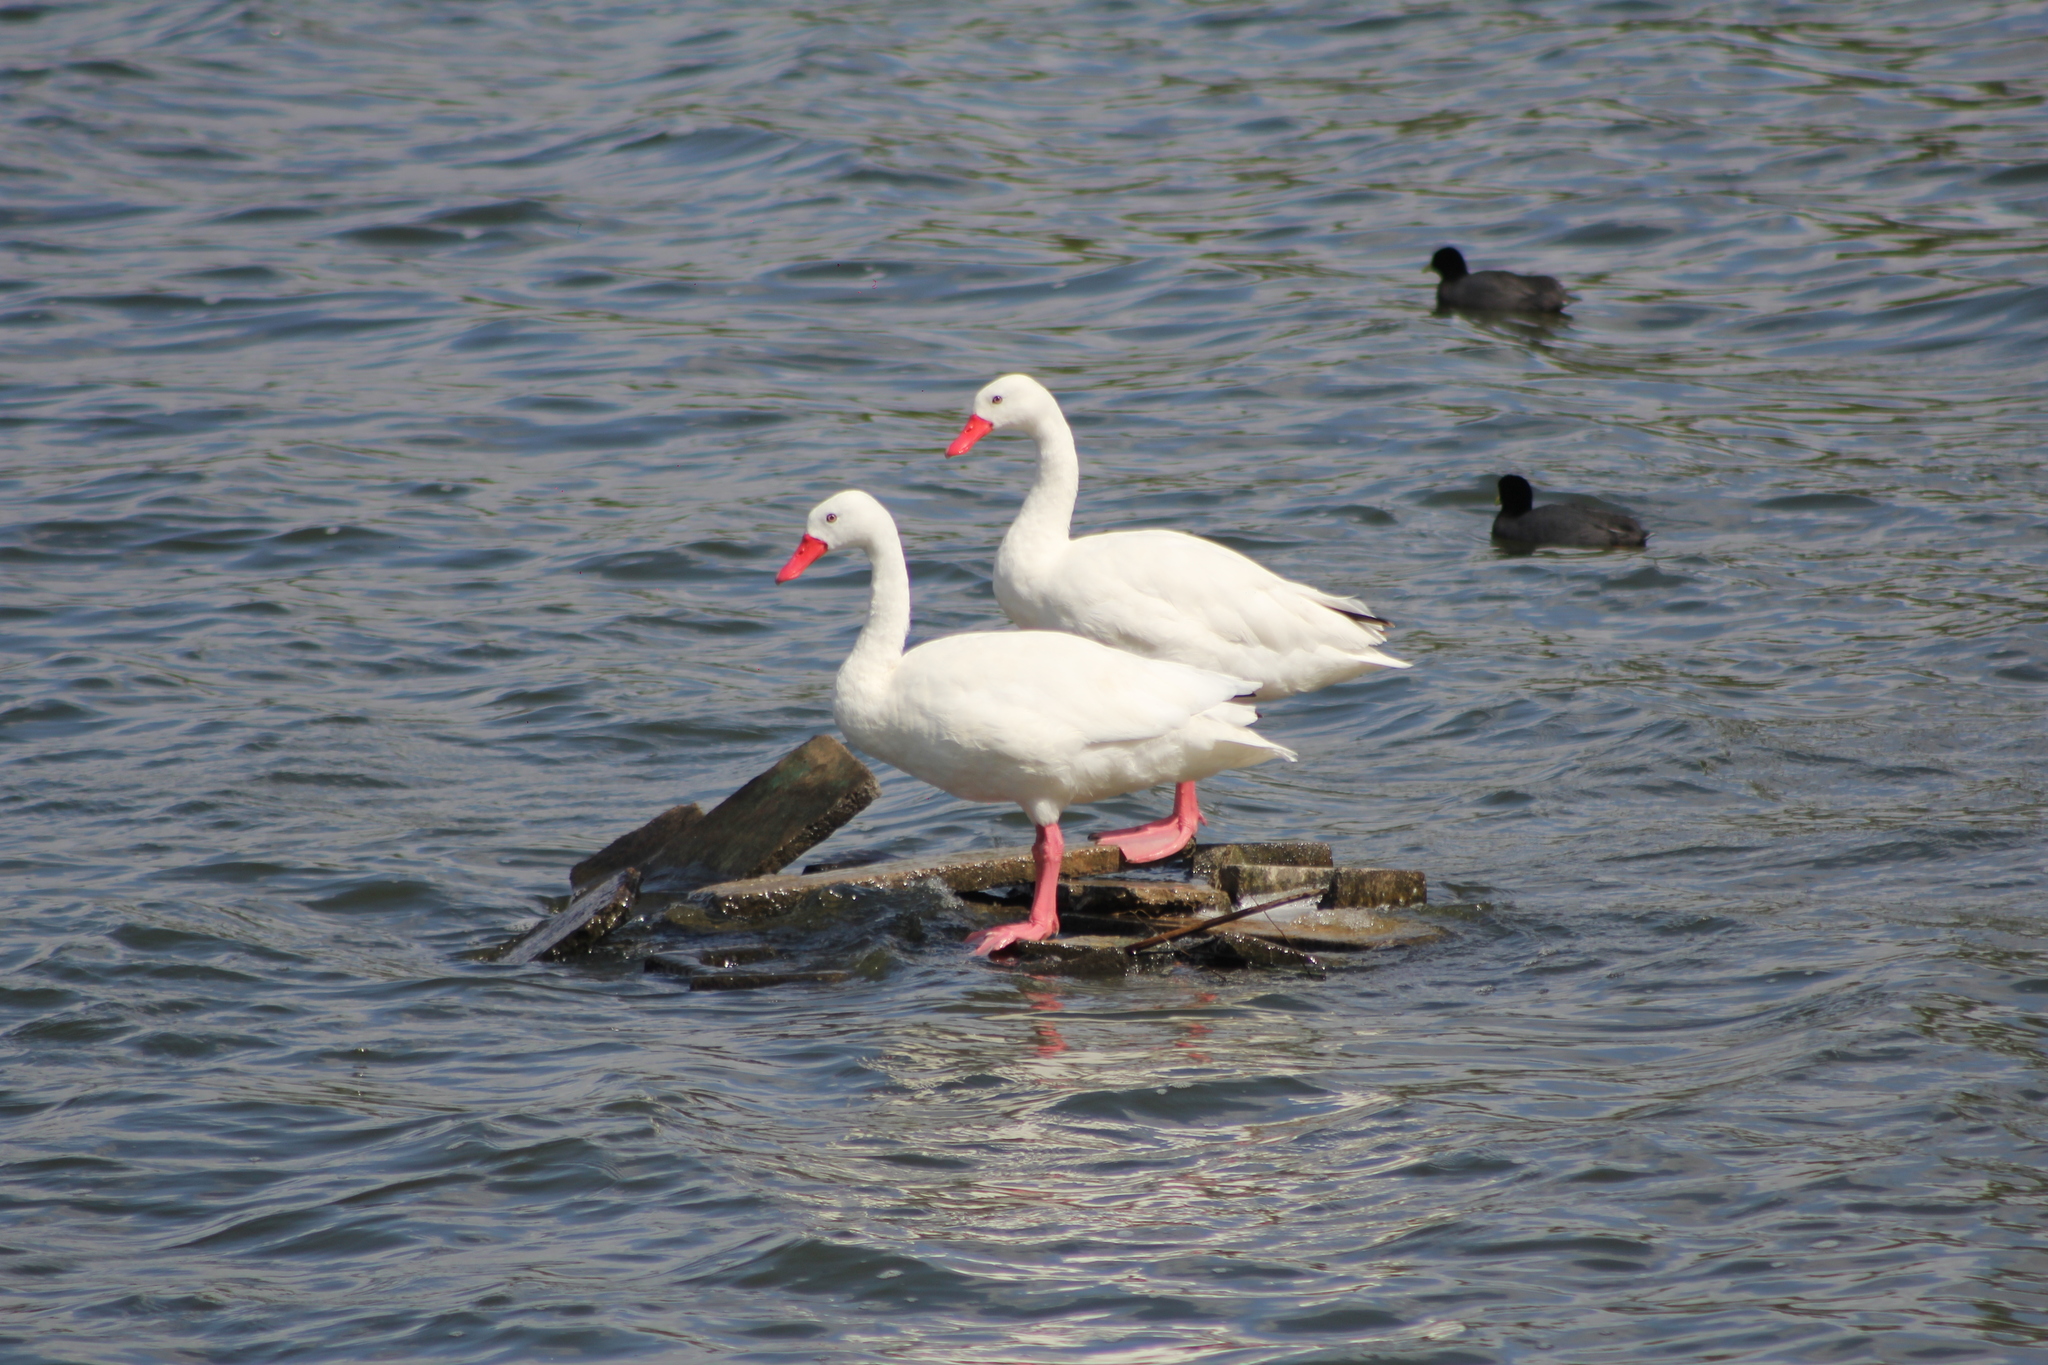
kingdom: Animalia
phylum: Chordata
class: Aves
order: Anseriformes
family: Anatidae
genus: Coscoroba
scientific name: Coscoroba coscoroba
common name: Coscoroba swan
